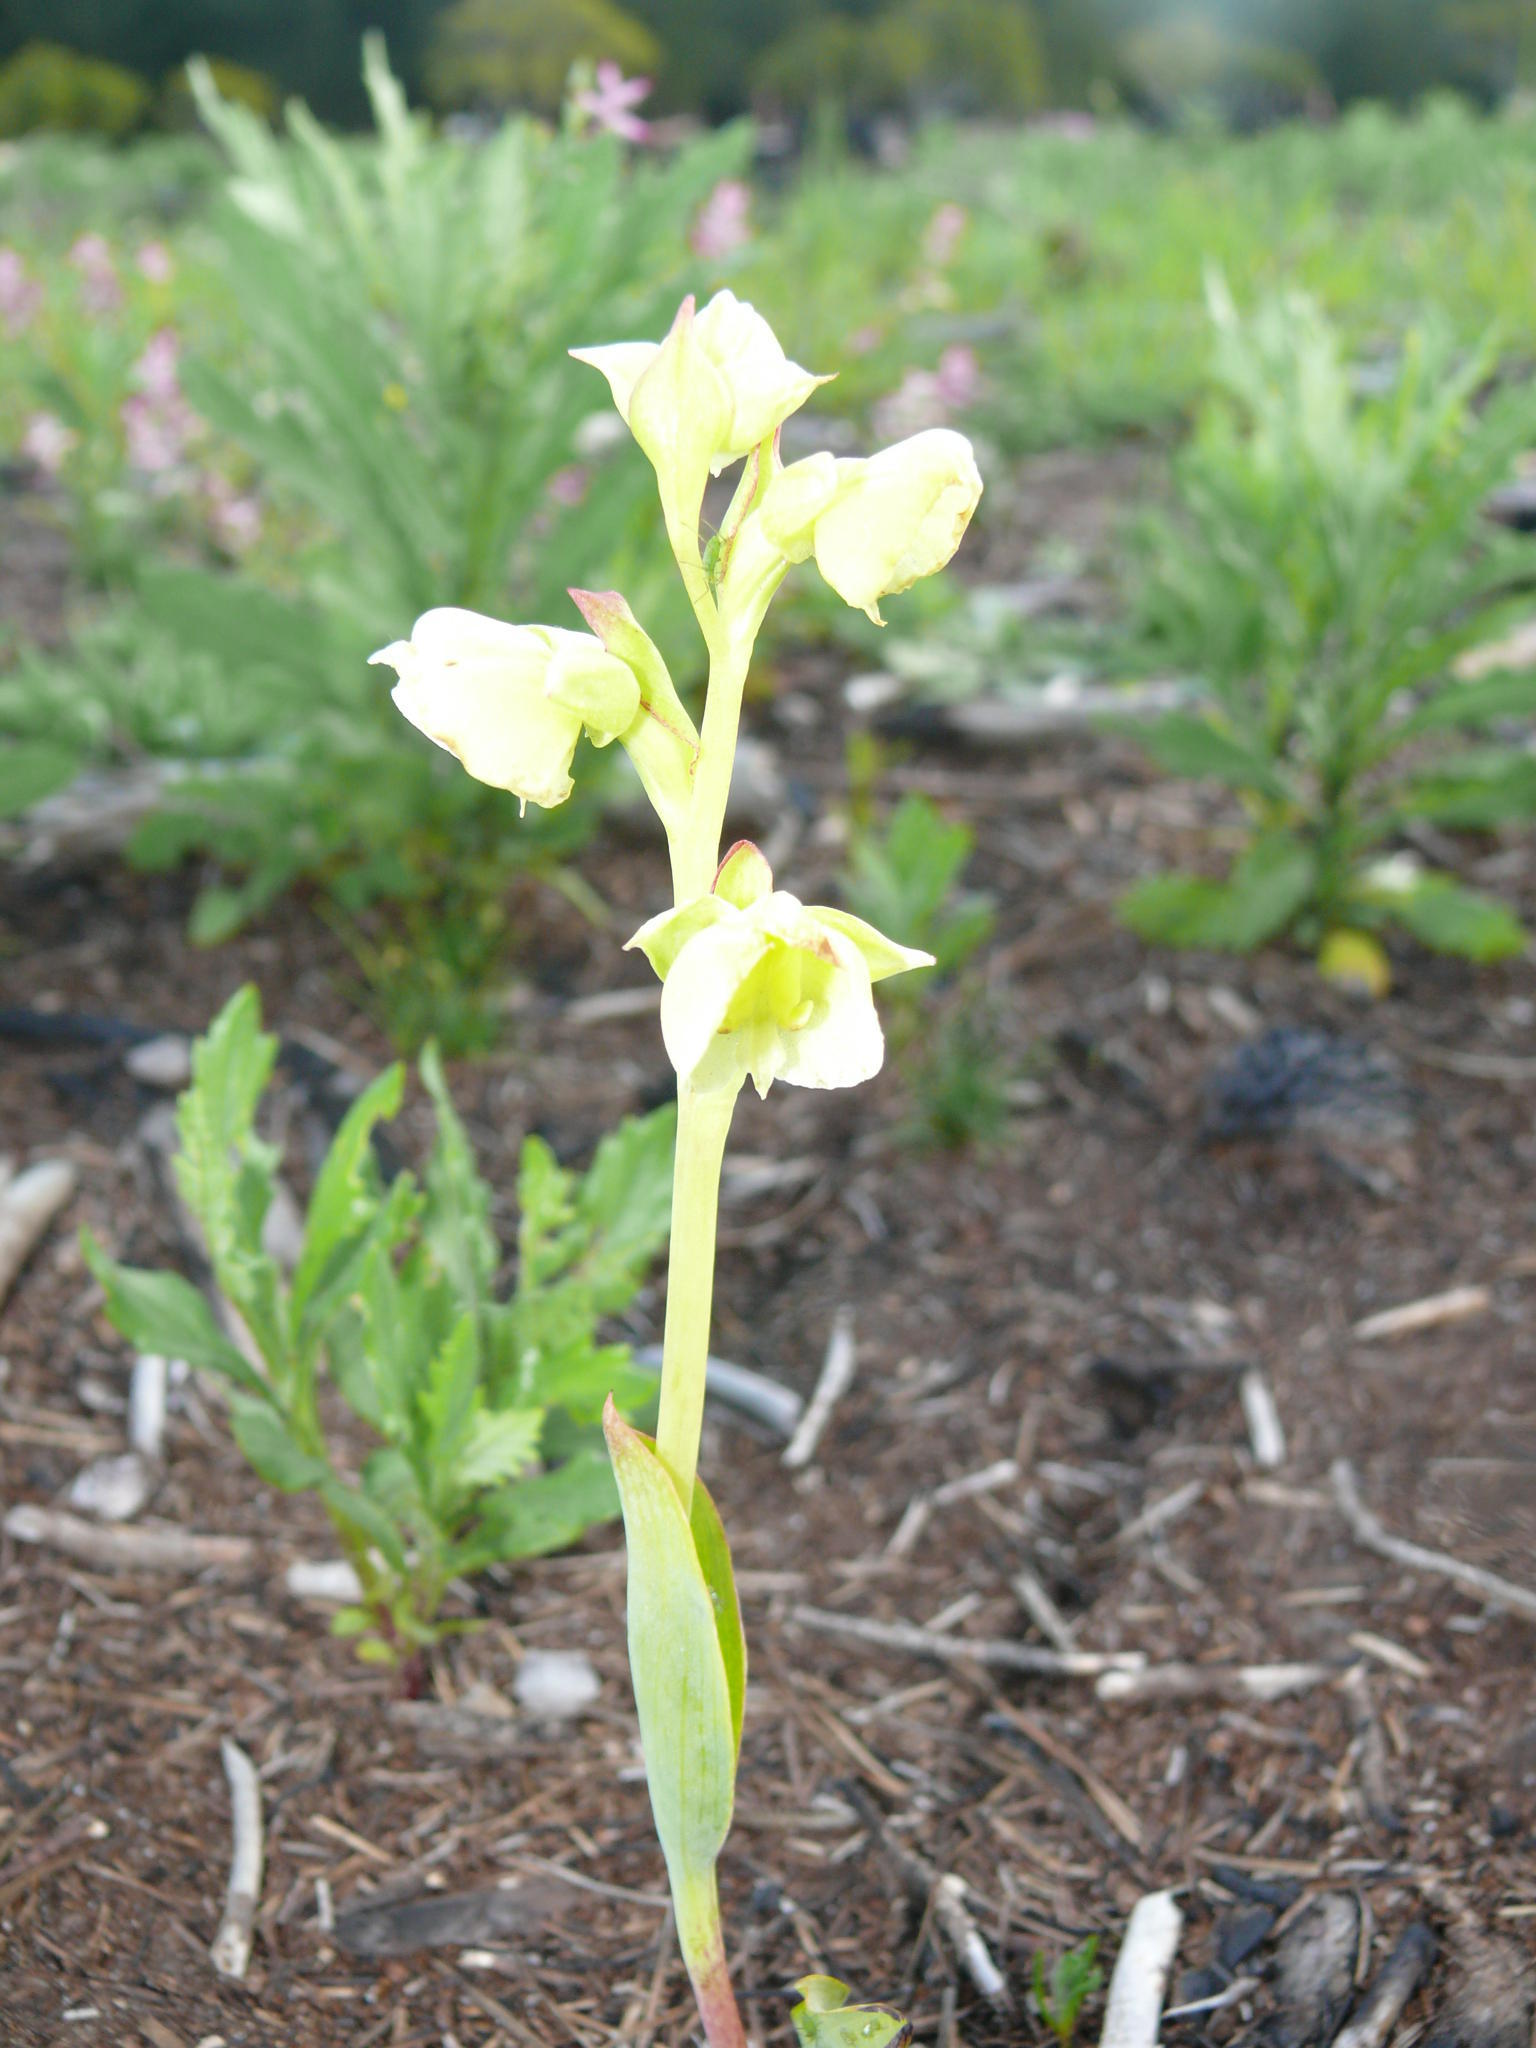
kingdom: Plantae
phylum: Tracheophyta
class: Liliopsida
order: Asparagales
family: Orchidaceae
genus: Pterygodium
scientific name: Pterygodium catholicum
